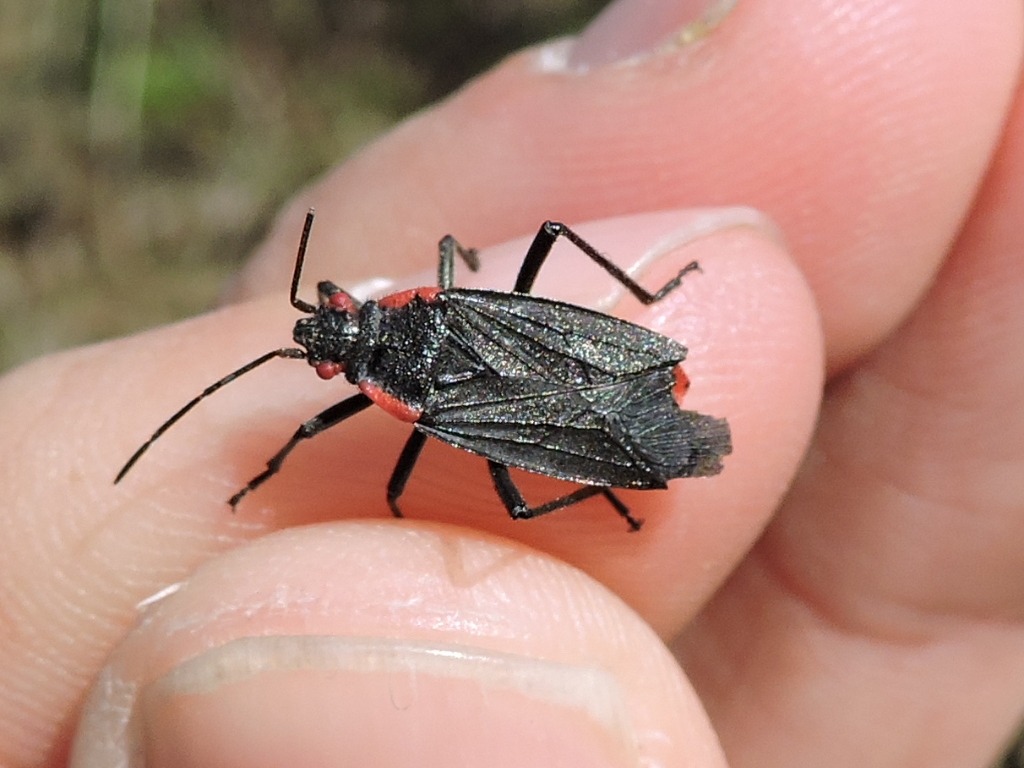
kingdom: Animalia
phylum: Arthropoda
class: Insecta
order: Hemiptera
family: Rhopalidae
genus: Jadera
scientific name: Jadera haematoloma
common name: Red-shouldered bug
